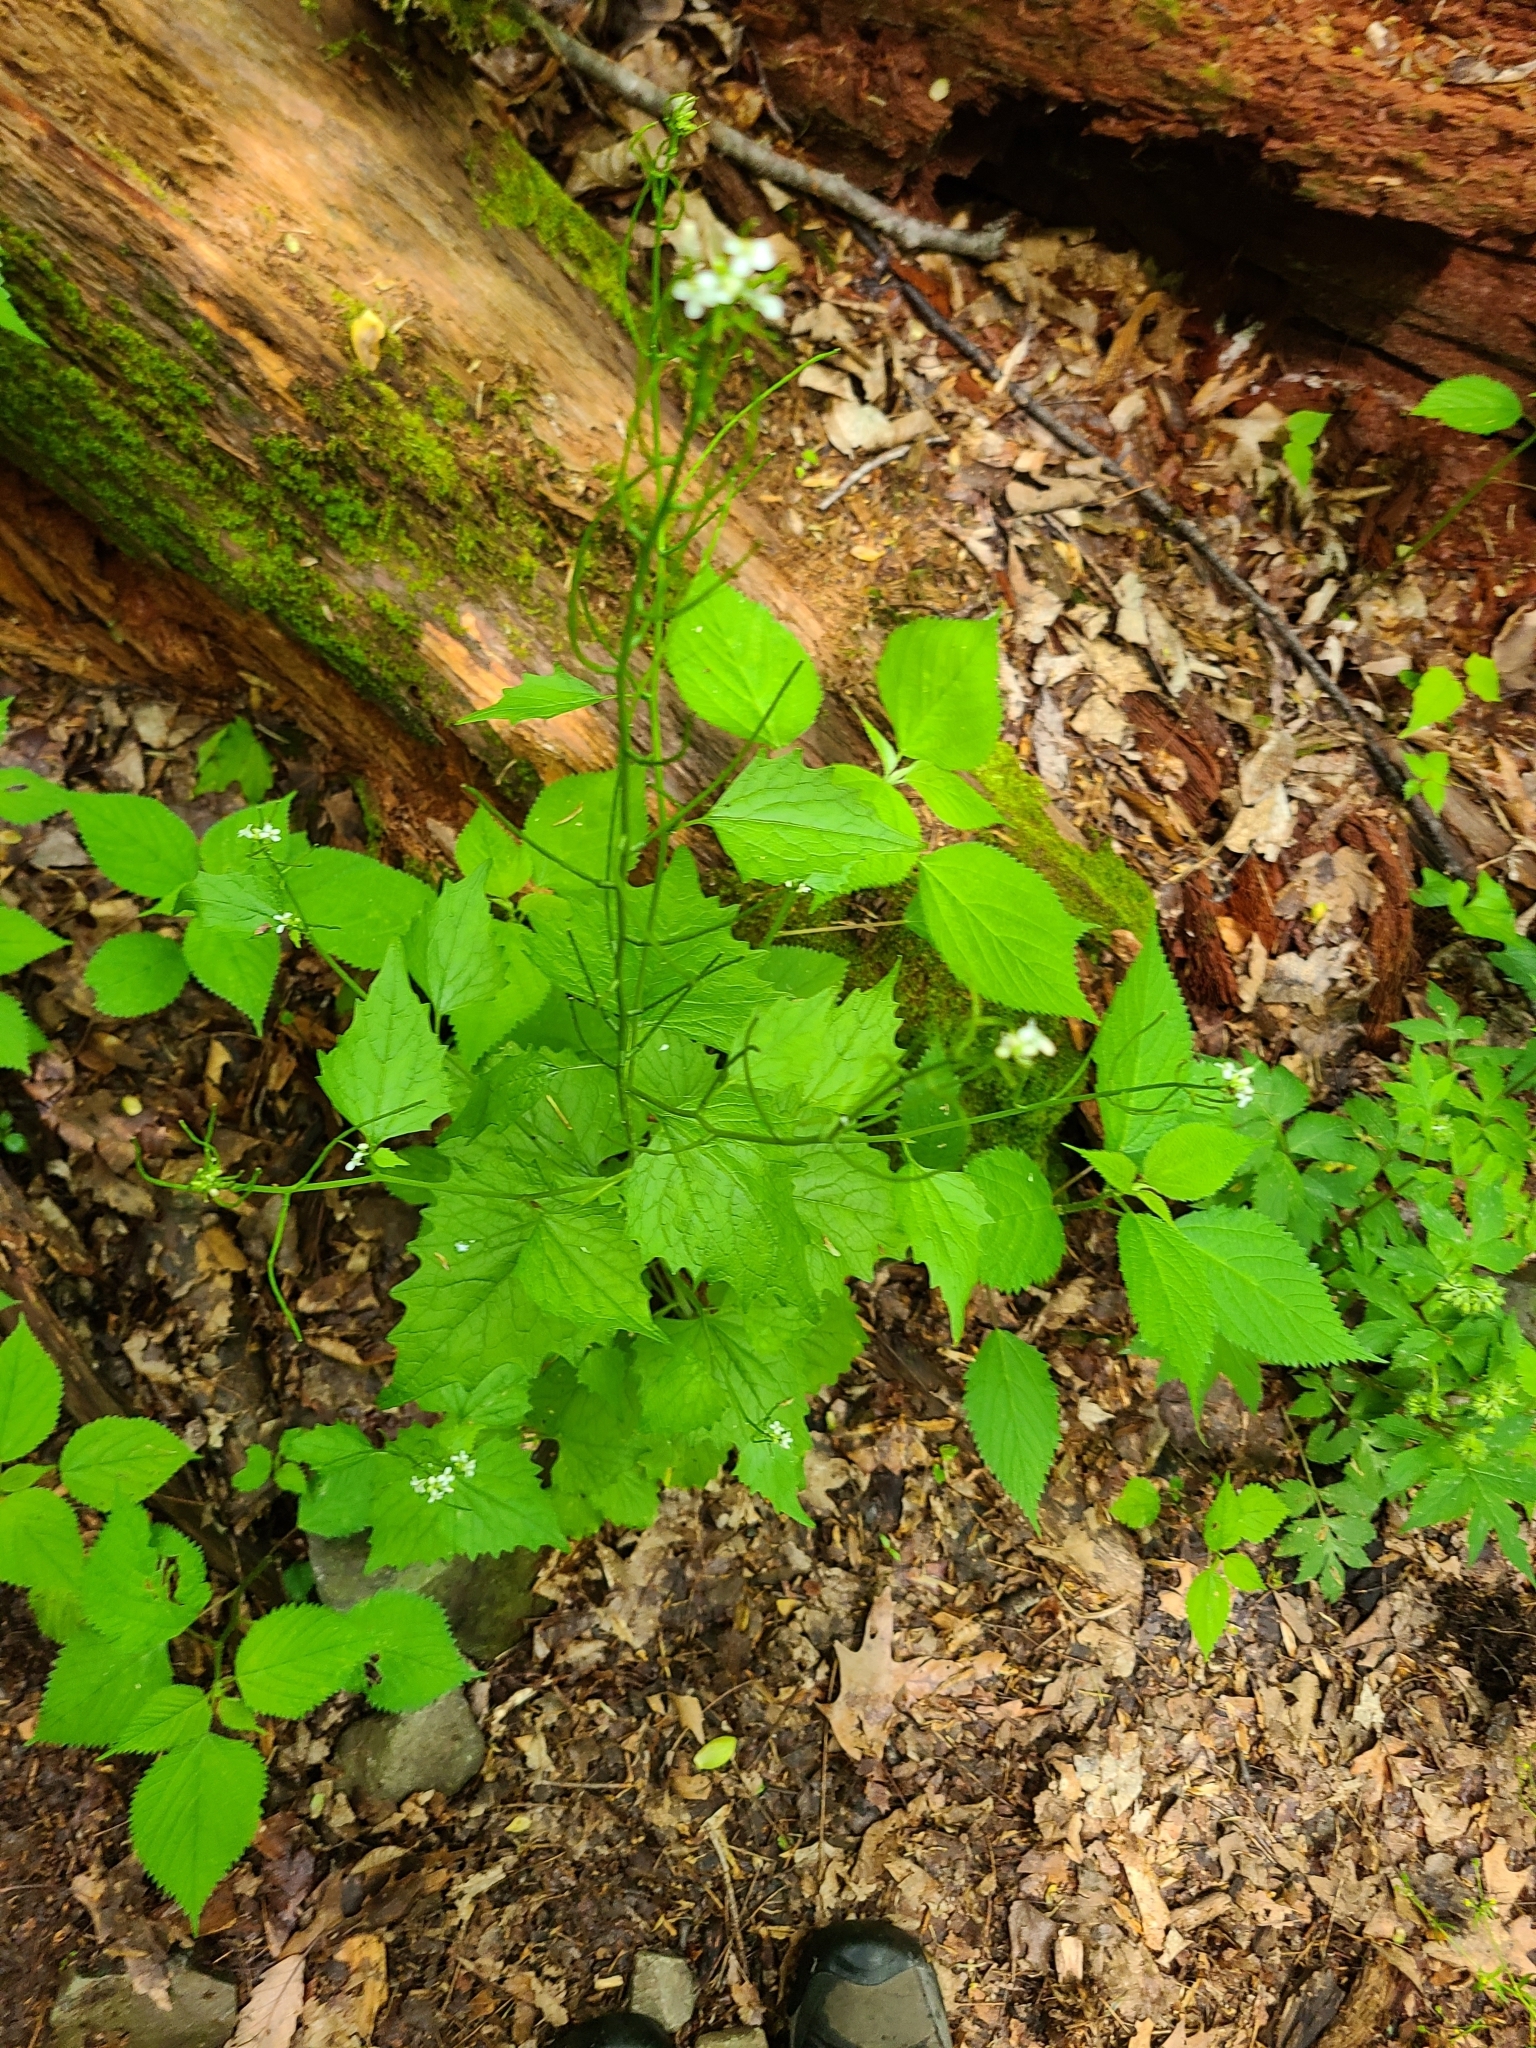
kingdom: Plantae
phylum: Tracheophyta
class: Magnoliopsida
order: Brassicales
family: Brassicaceae
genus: Alliaria
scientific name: Alliaria petiolata
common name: Garlic mustard
